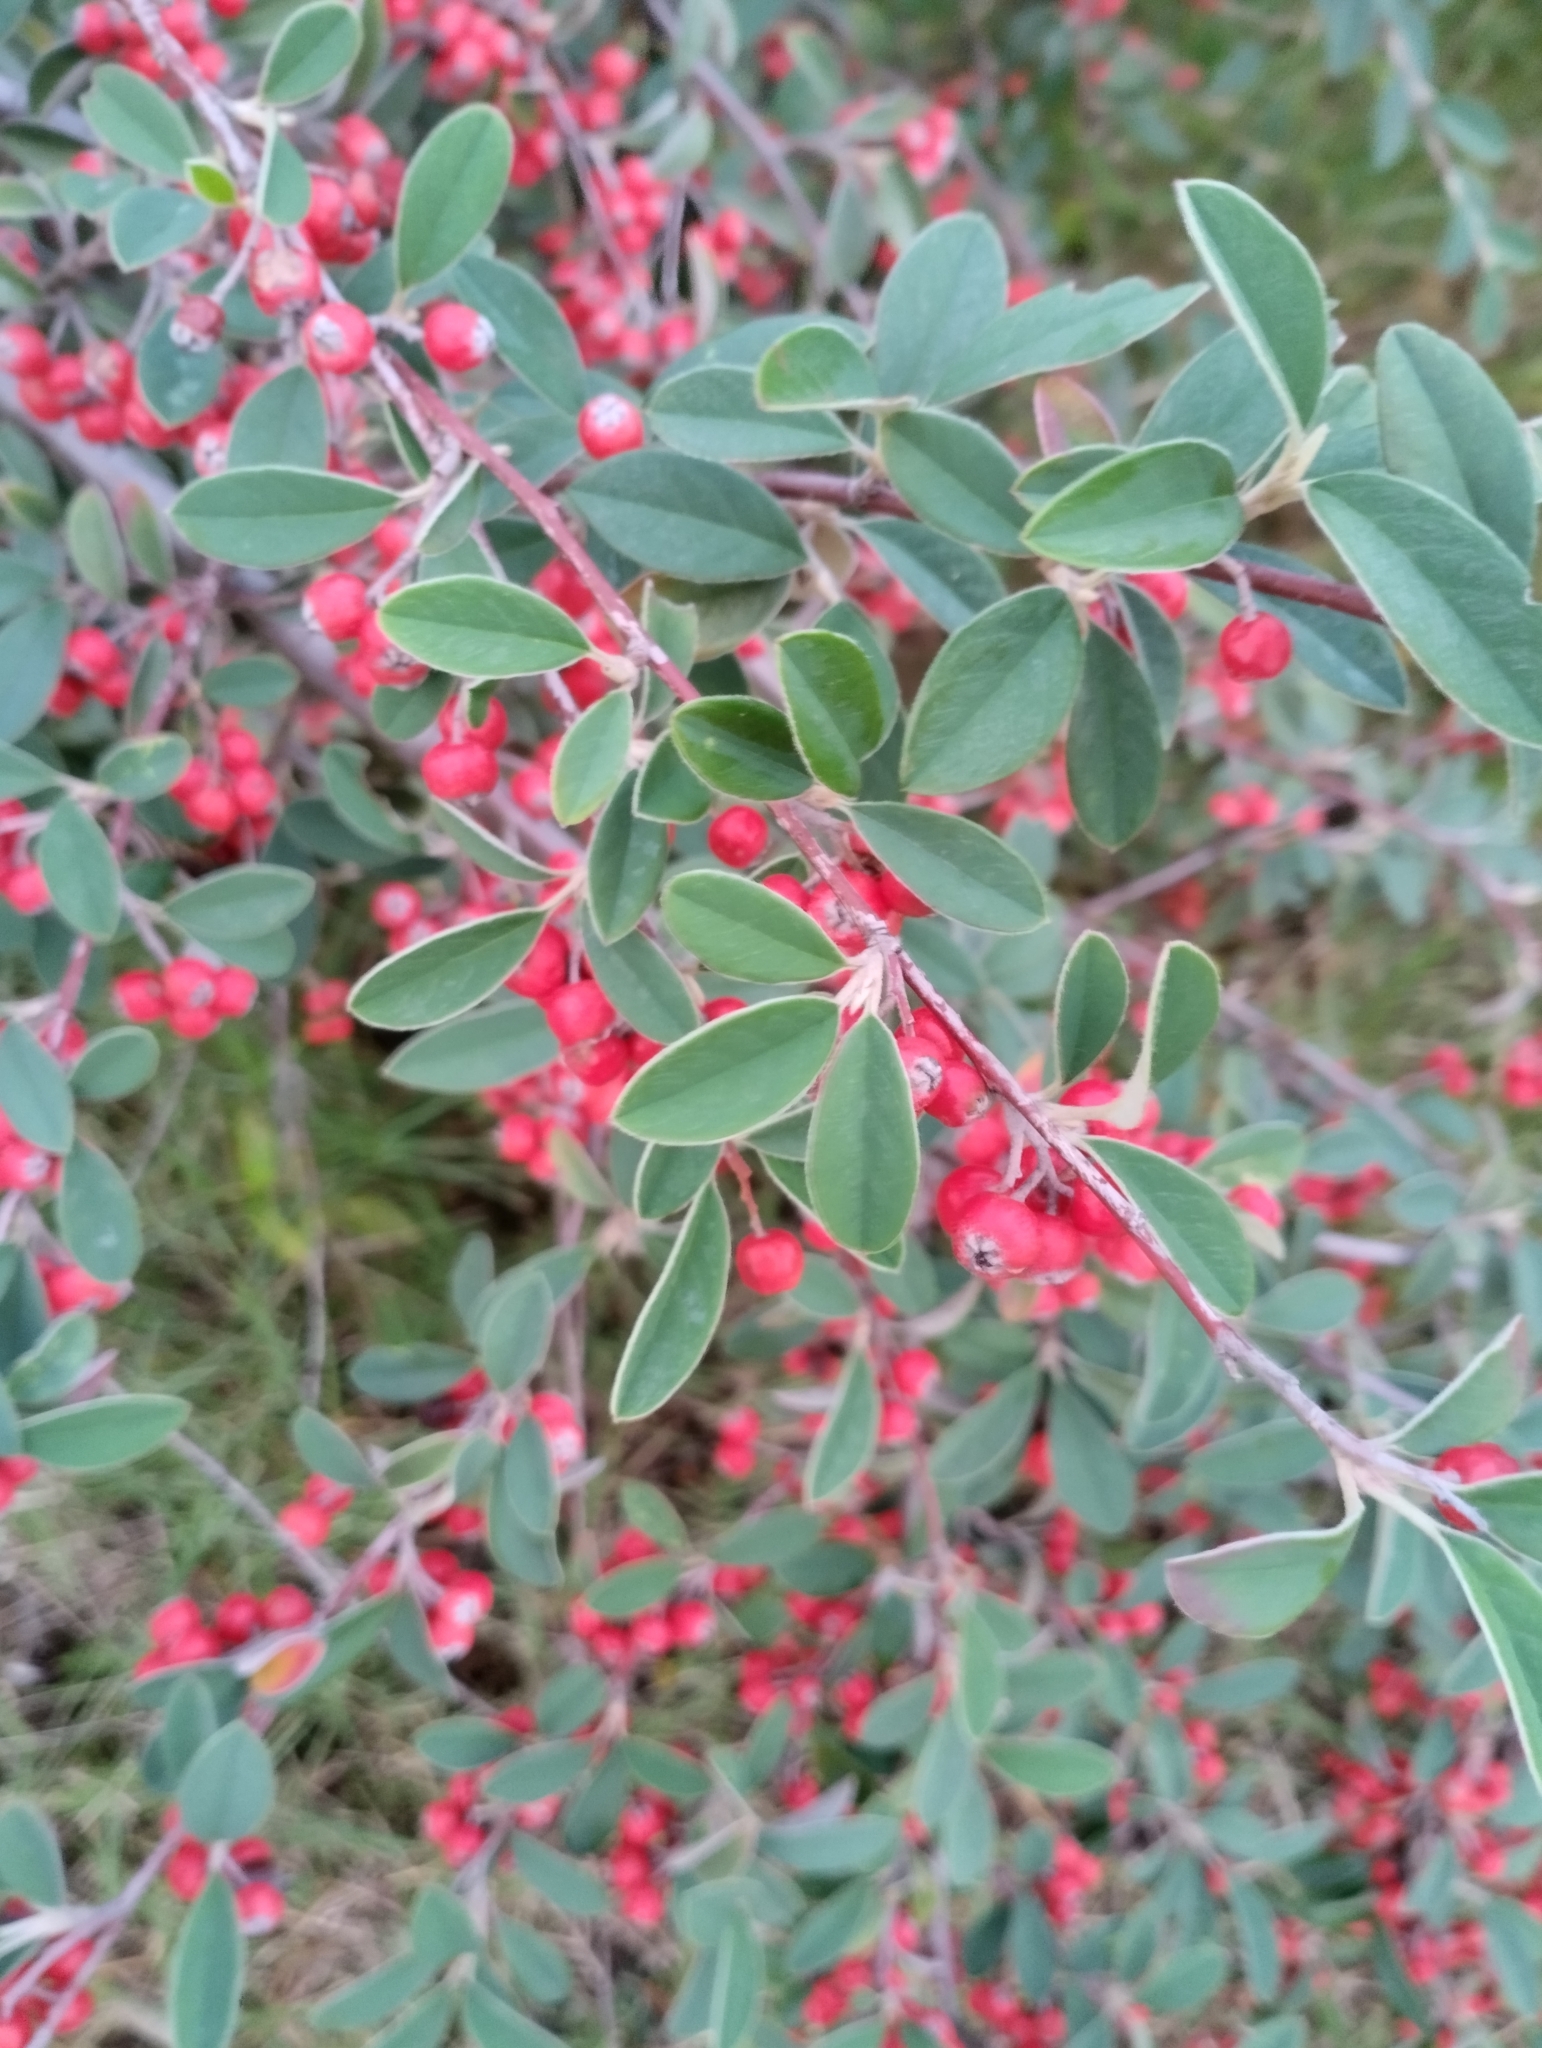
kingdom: Plantae
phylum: Tracheophyta
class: Magnoliopsida
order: Rosales
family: Rosaceae
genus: Cotoneaster
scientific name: Cotoneaster pannosus
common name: Silverleaf cotoneaster
